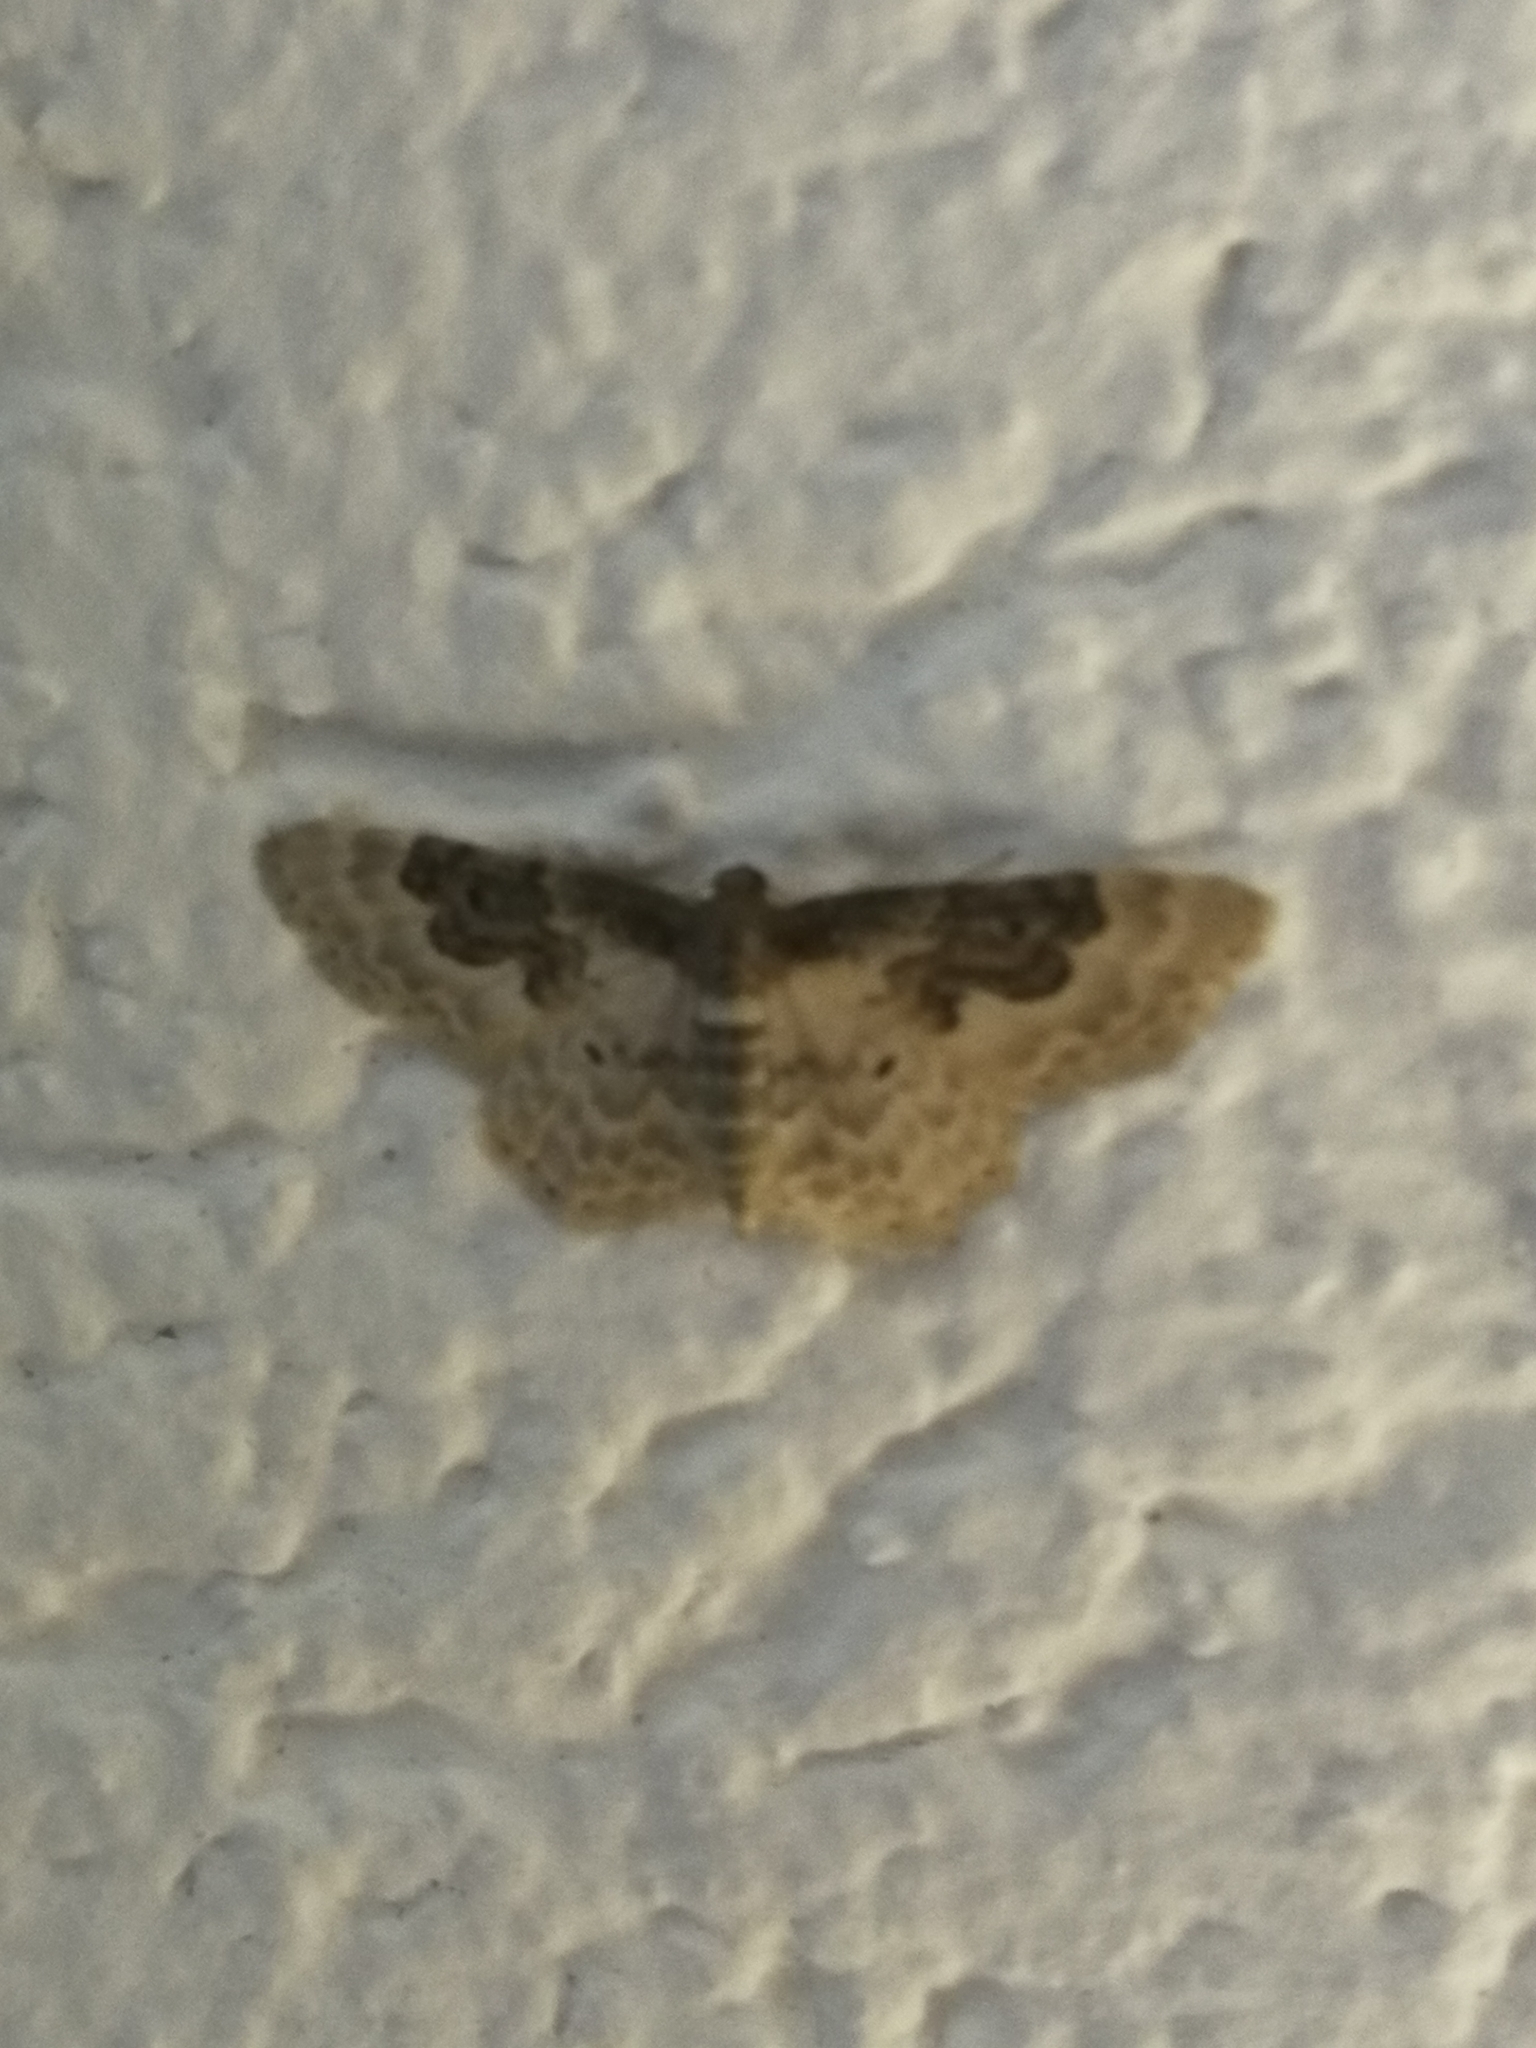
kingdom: Animalia
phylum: Arthropoda
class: Insecta
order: Lepidoptera
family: Geometridae
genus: Idaea
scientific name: Idaea rusticata
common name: Least carpet
